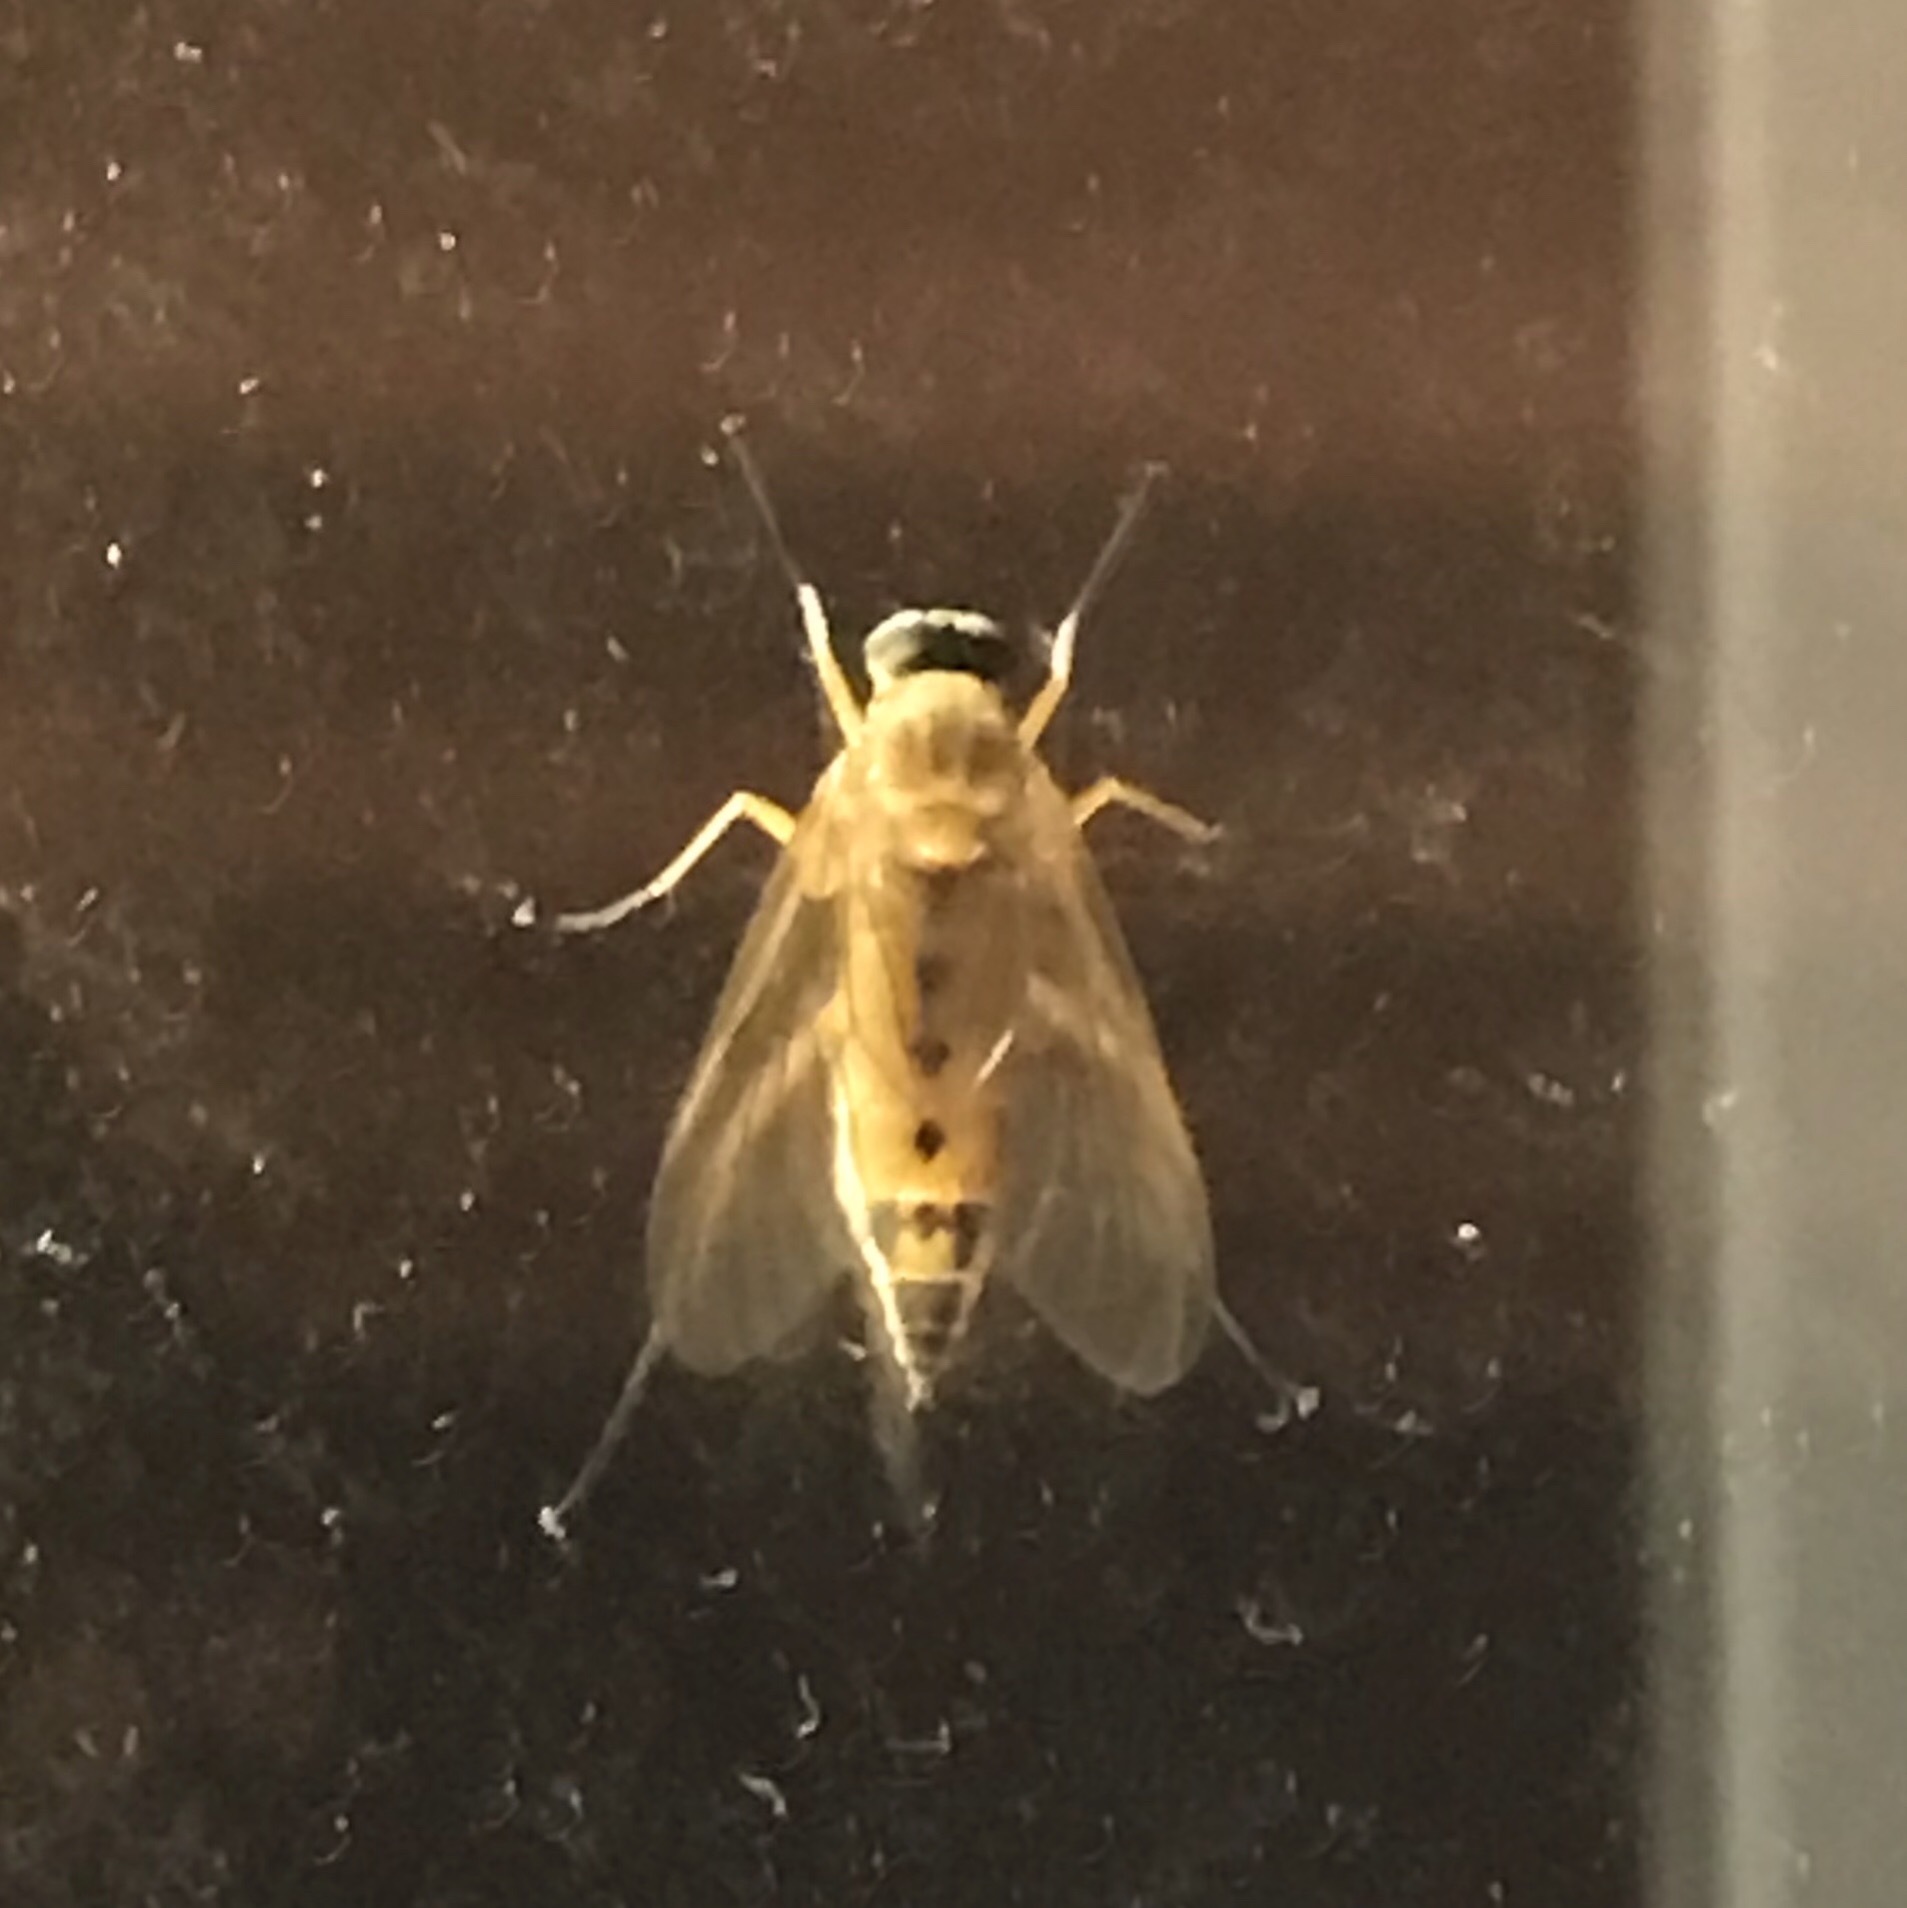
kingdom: Animalia
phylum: Arthropoda
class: Insecta
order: Diptera
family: Rhagionidae
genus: Rhagio
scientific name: Rhagio tringaria
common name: Marsh snipefly
